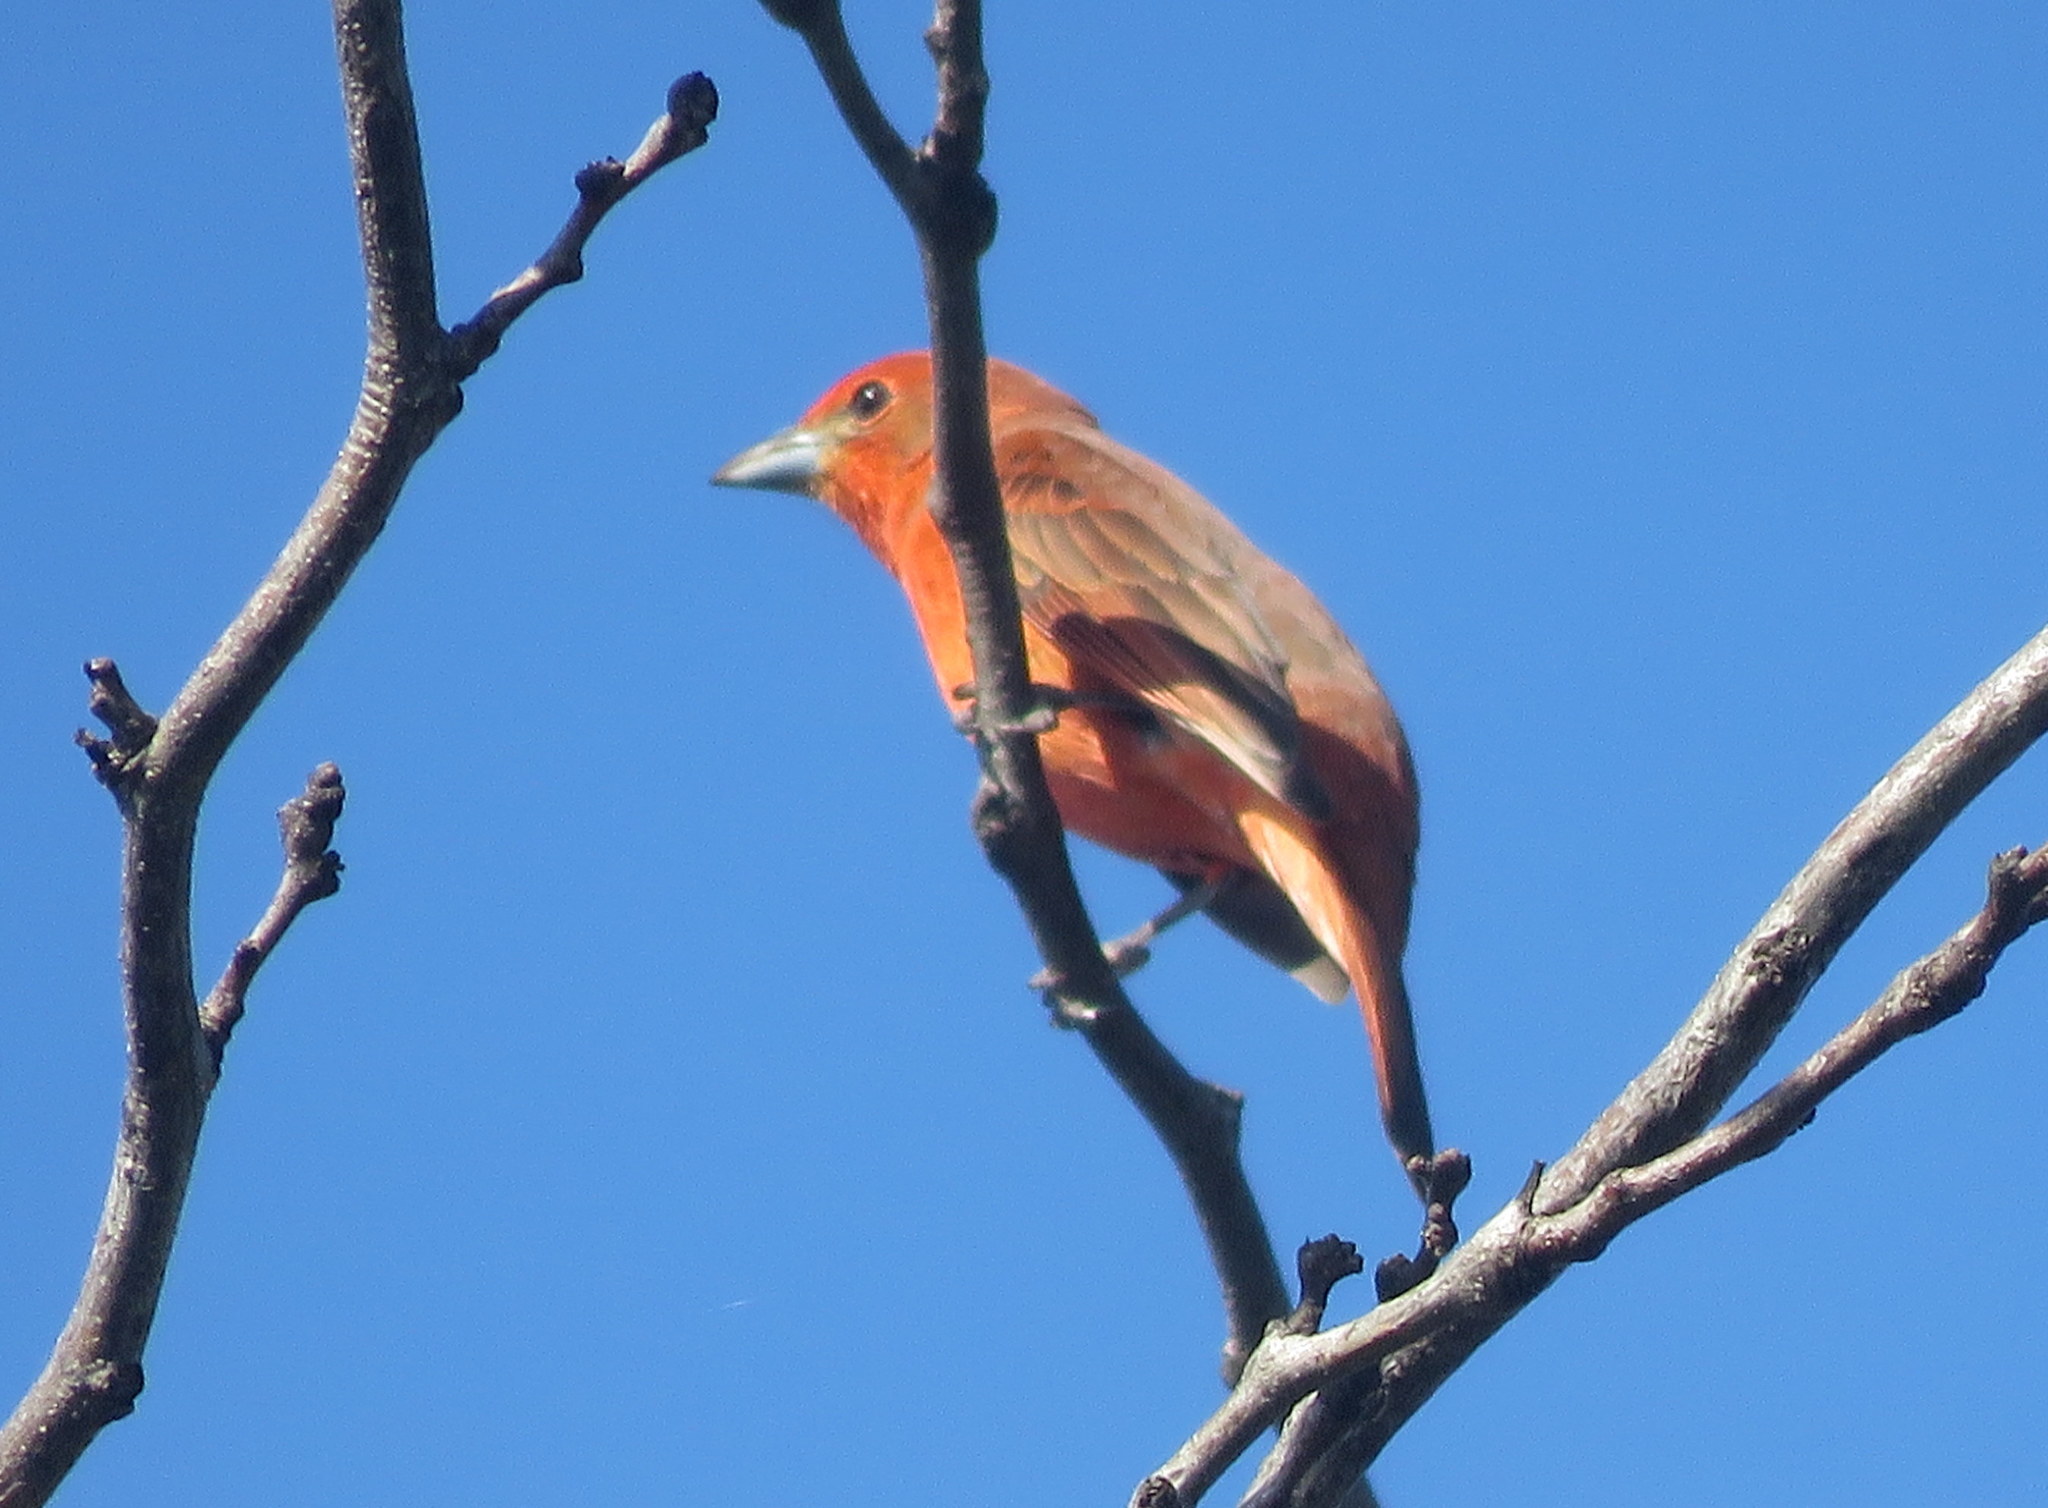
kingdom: Animalia
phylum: Chordata
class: Aves
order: Passeriformes
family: Cardinalidae
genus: Piranga
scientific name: Piranga flava
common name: Red tanager
